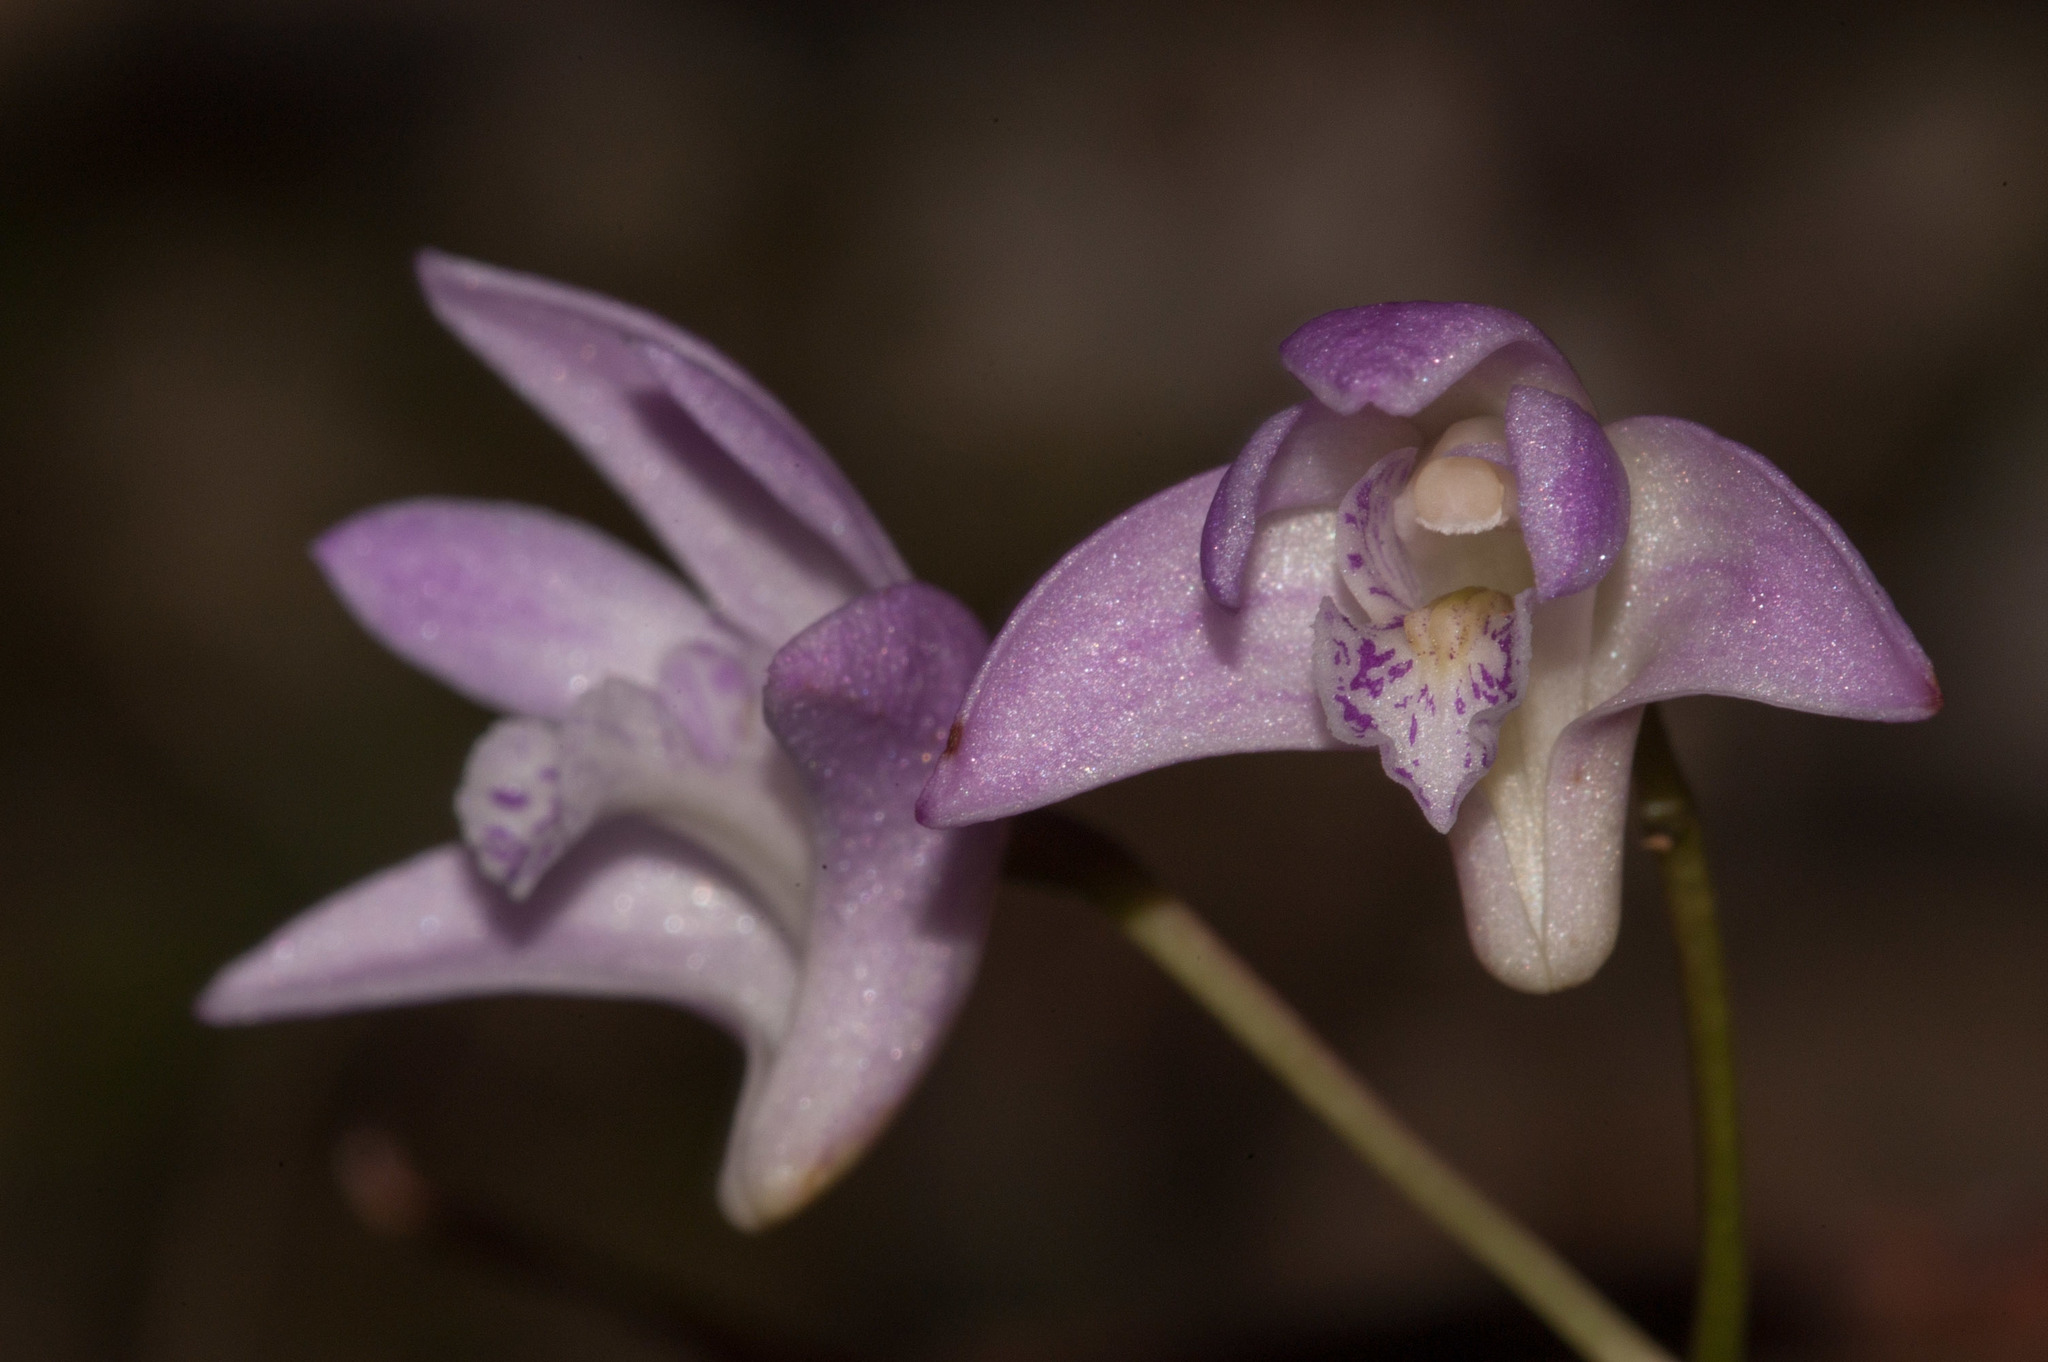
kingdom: Plantae
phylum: Tracheophyta
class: Liliopsida
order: Asparagales
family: Orchidaceae
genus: Dendrobium
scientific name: Dendrobium kingianum
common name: Pink rock orchid
